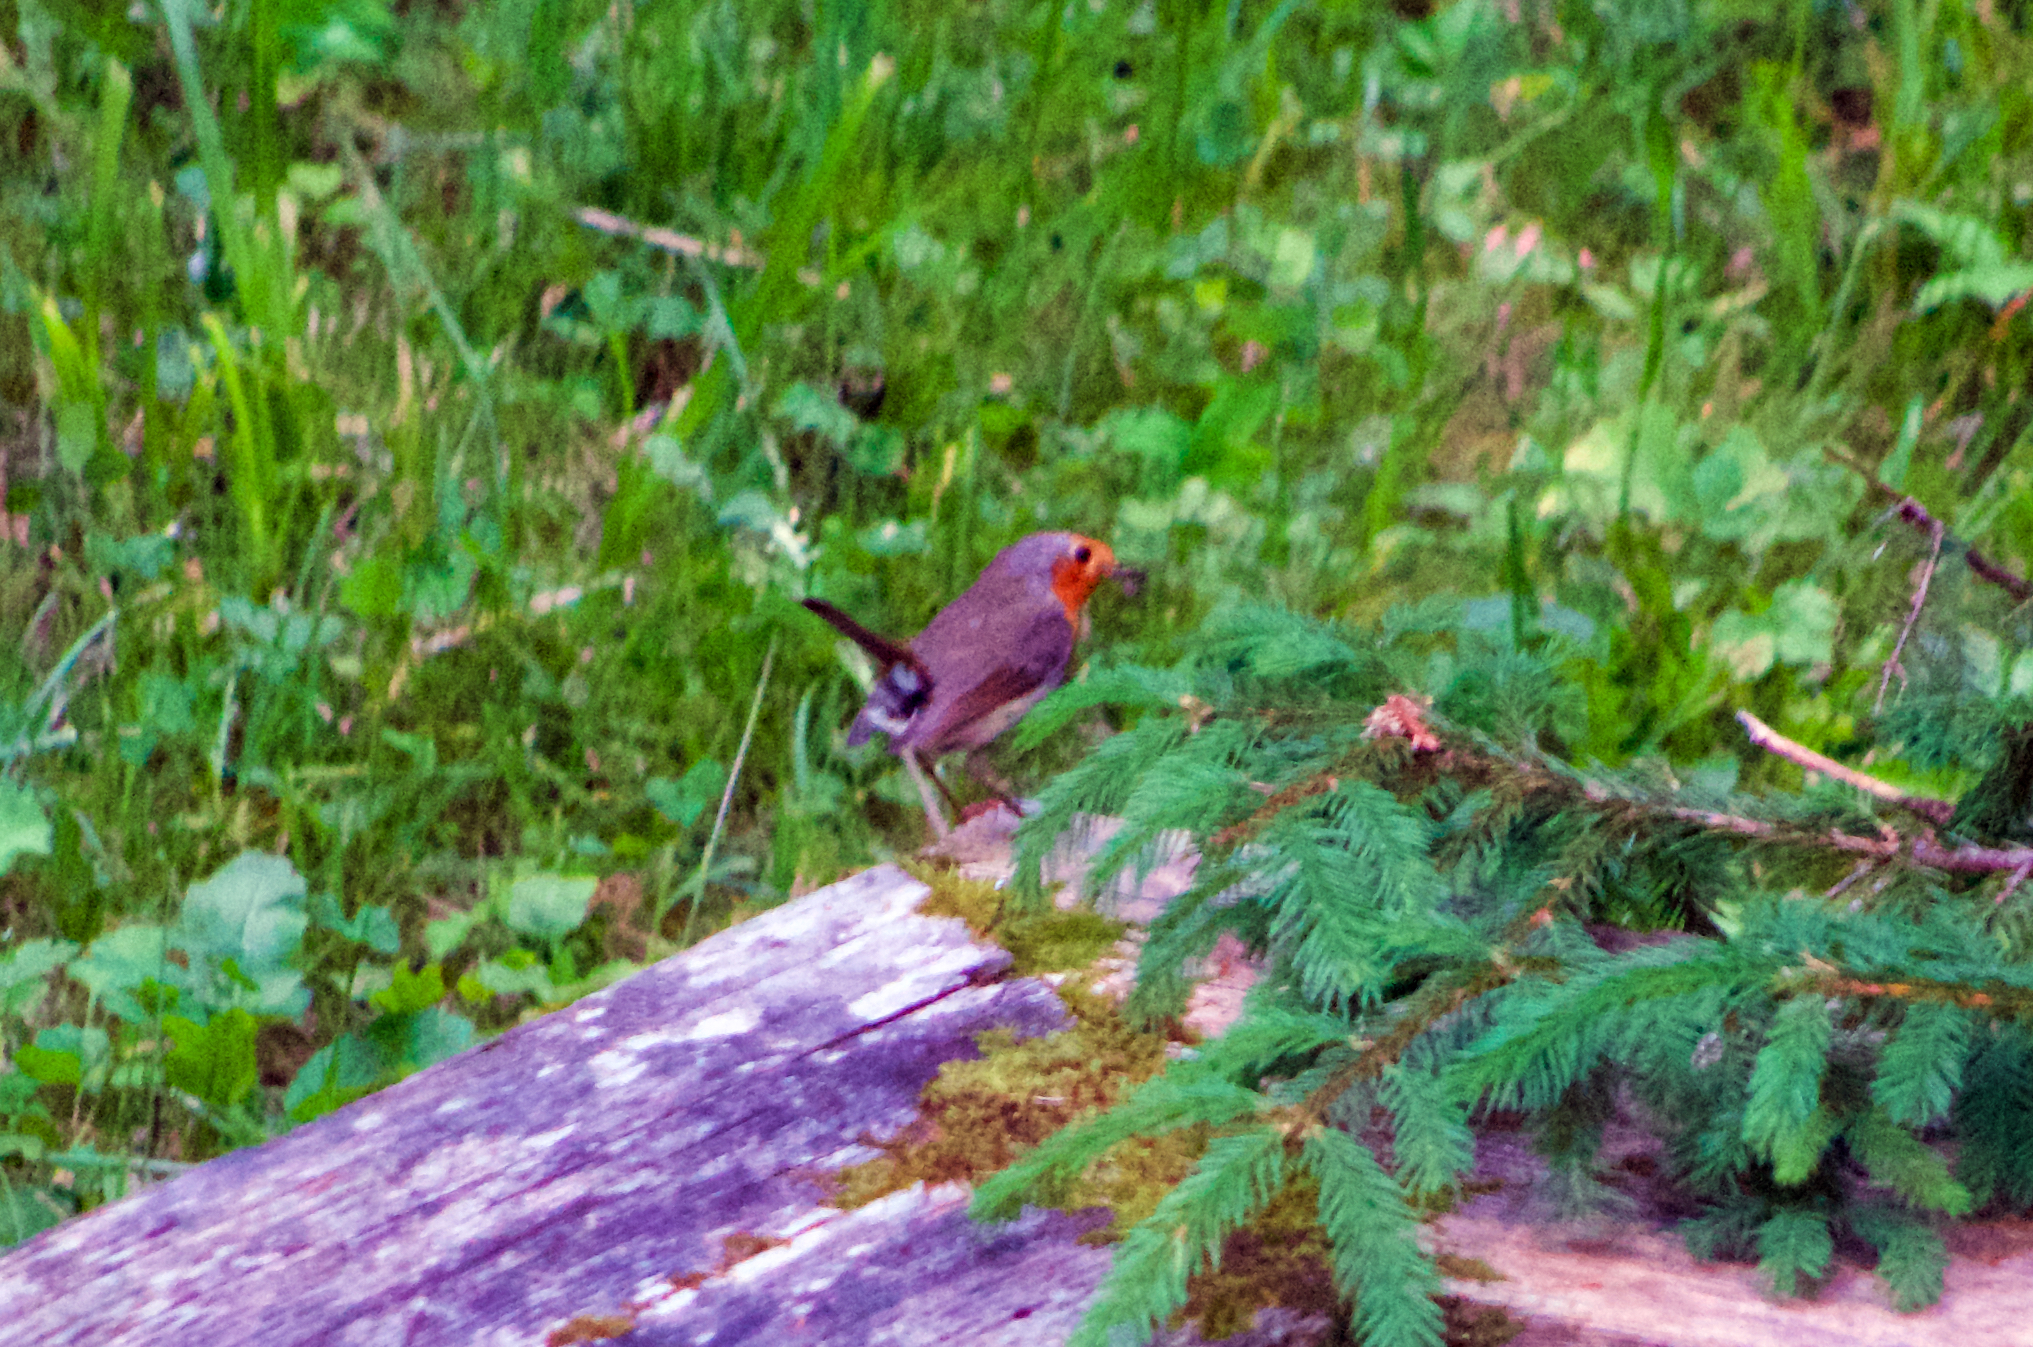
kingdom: Animalia
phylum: Chordata
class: Aves
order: Passeriformes
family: Muscicapidae
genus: Erithacus
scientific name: Erithacus rubecula
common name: European robin
